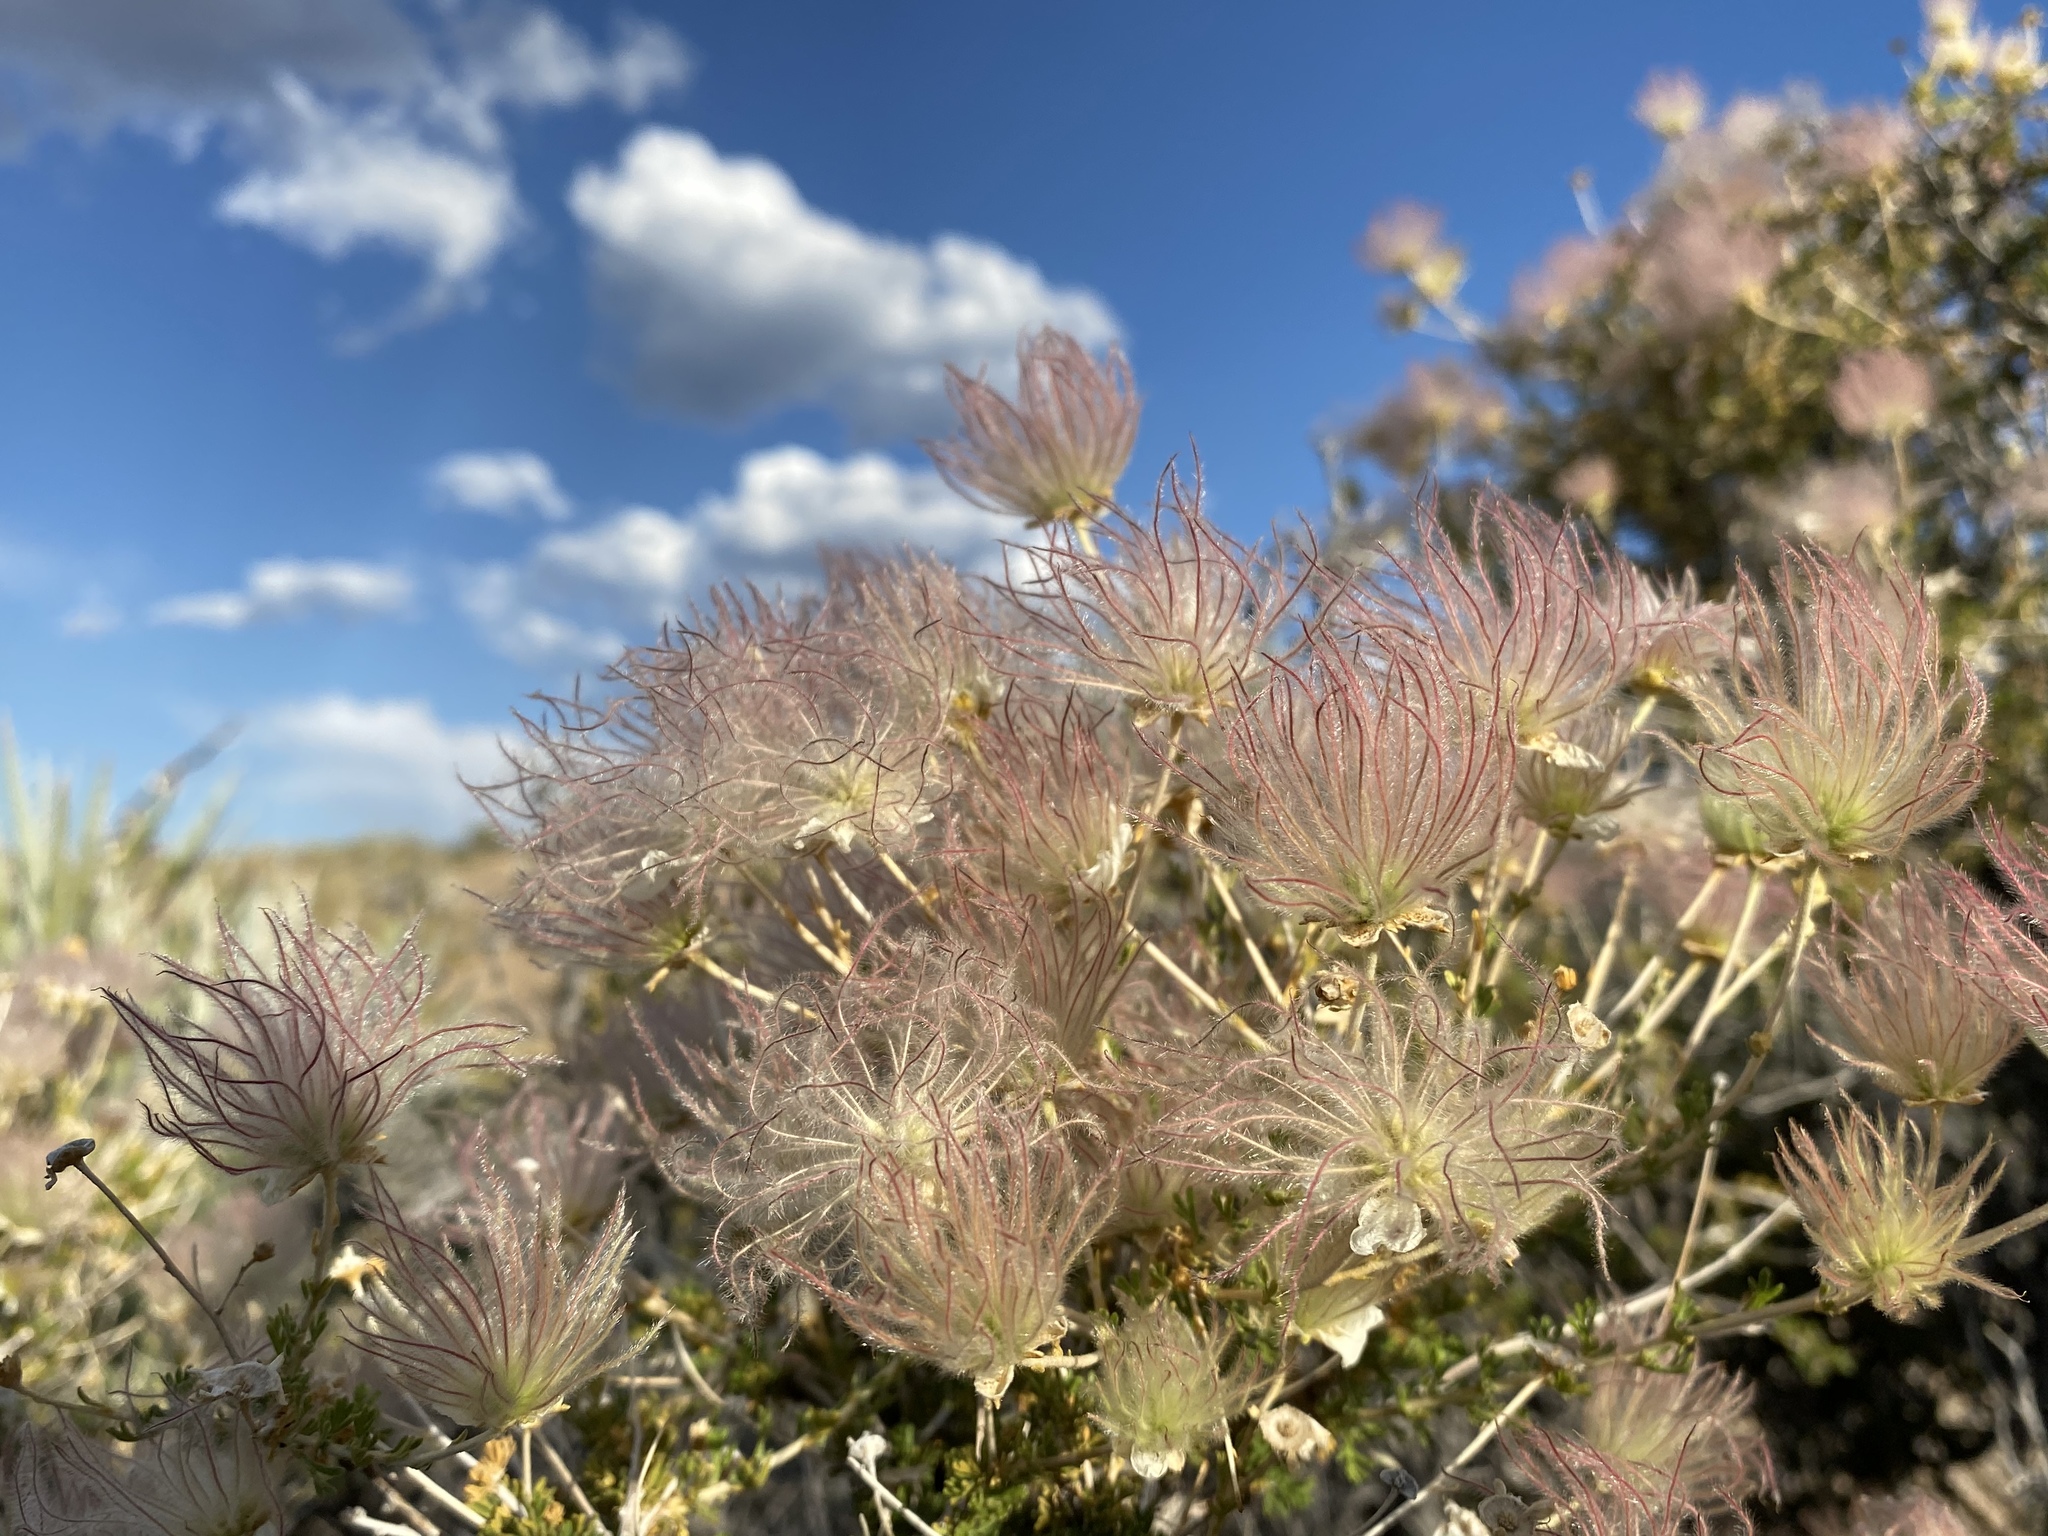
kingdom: Plantae
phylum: Tracheophyta
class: Magnoliopsida
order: Rosales
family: Rosaceae
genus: Fallugia
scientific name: Fallugia paradoxa
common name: Apache-plume
